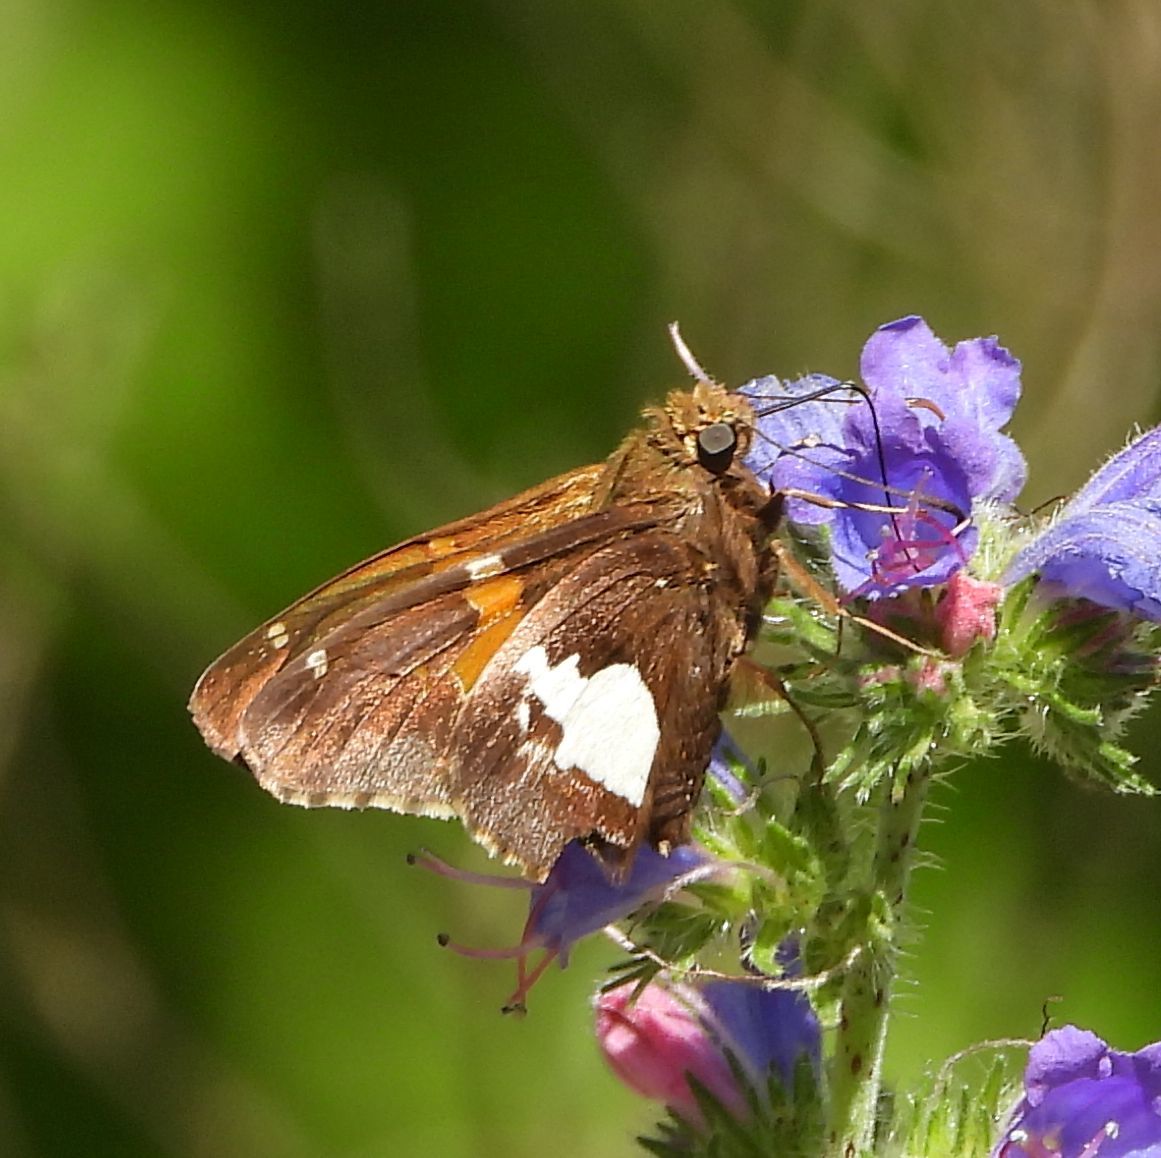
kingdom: Animalia
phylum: Arthropoda
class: Insecta
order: Lepidoptera
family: Hesperiidae
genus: Epargyreus
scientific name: Epargyreus clarus
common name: Silver-spotted skipper
